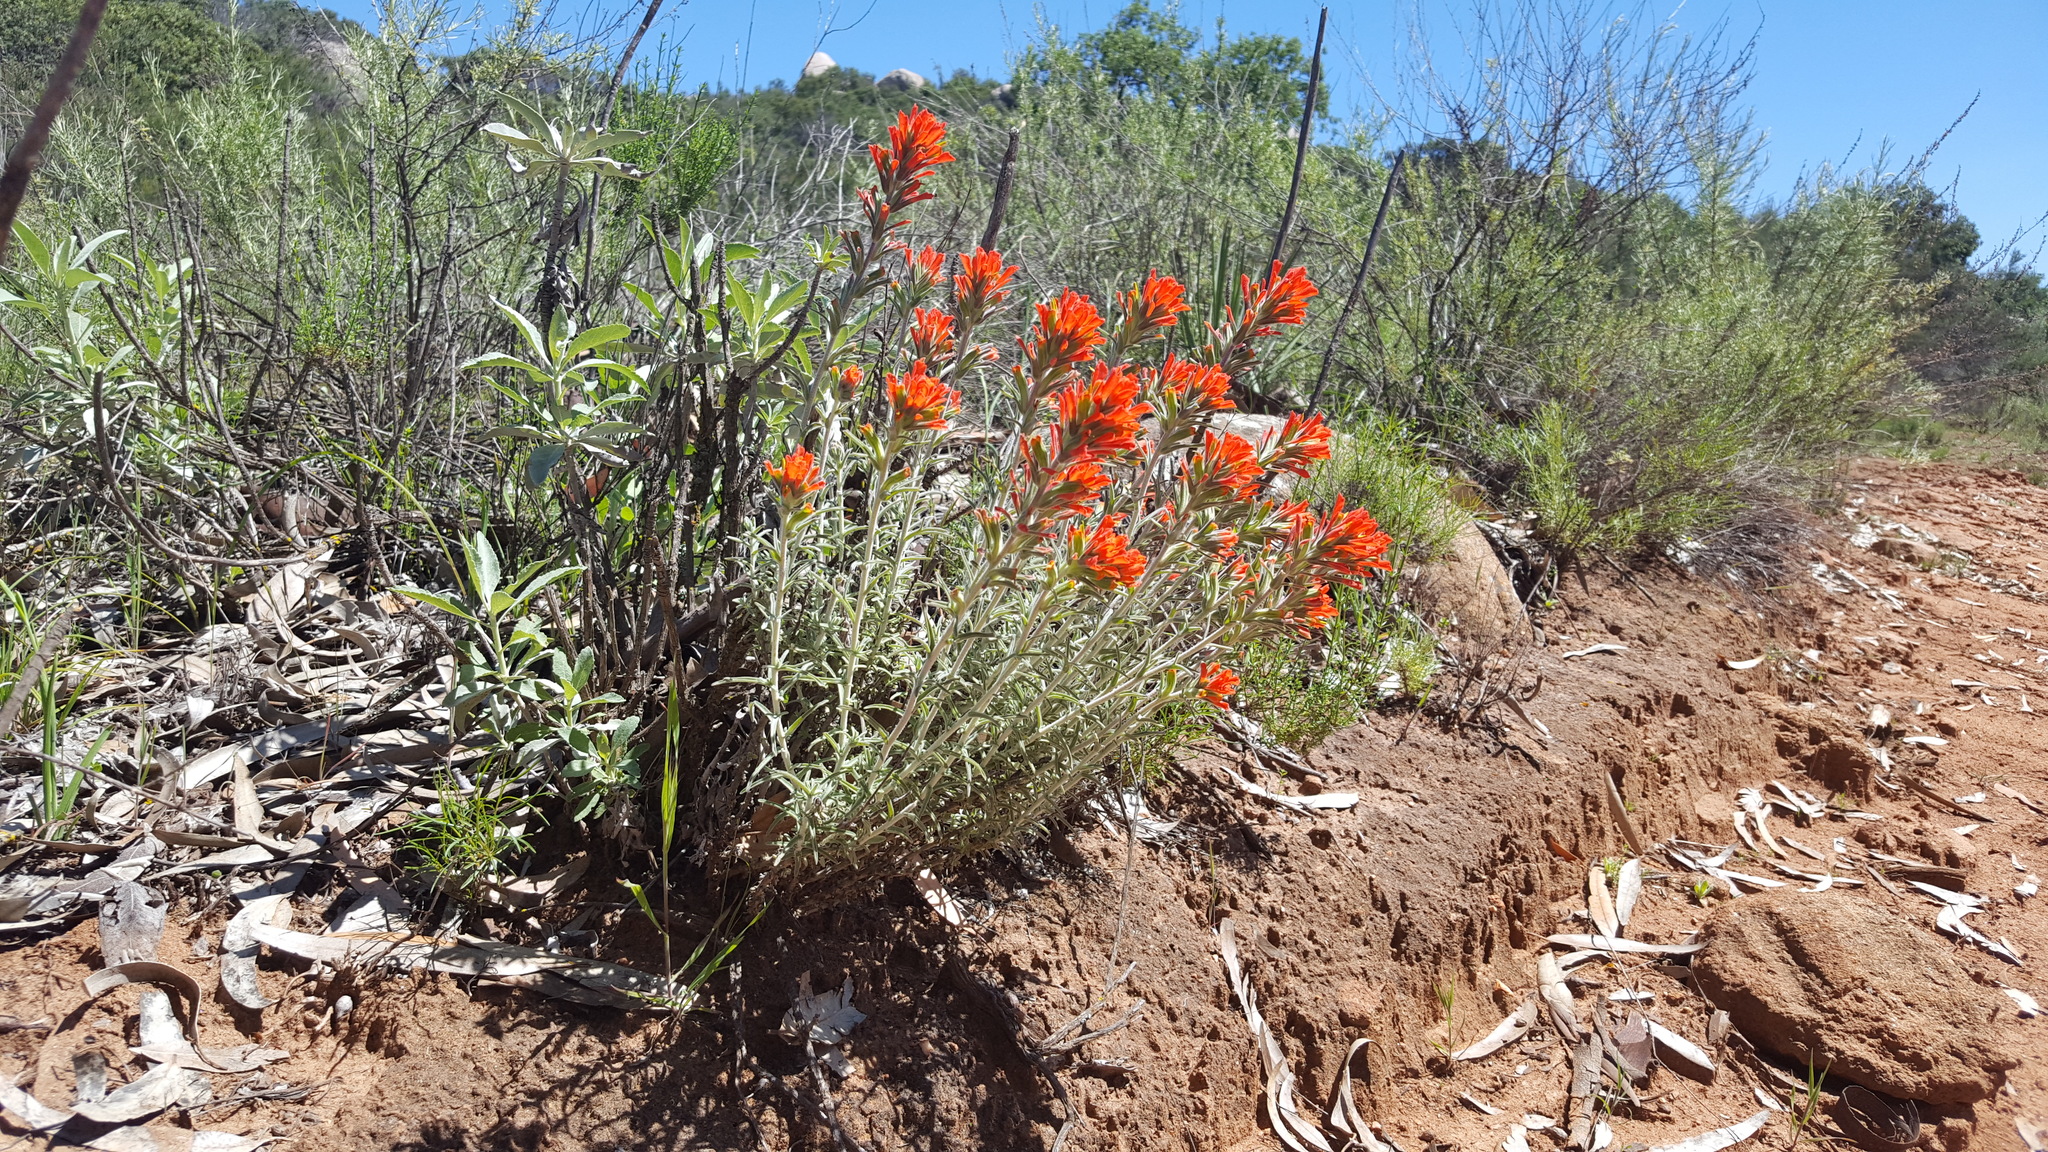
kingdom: Plantae
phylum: Tracheophyta
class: Magnoliopsida
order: Lamiales
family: Orobanchaceae
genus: Castilleja
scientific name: Castilleja foliolosa
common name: Woolly indian paintbrush
